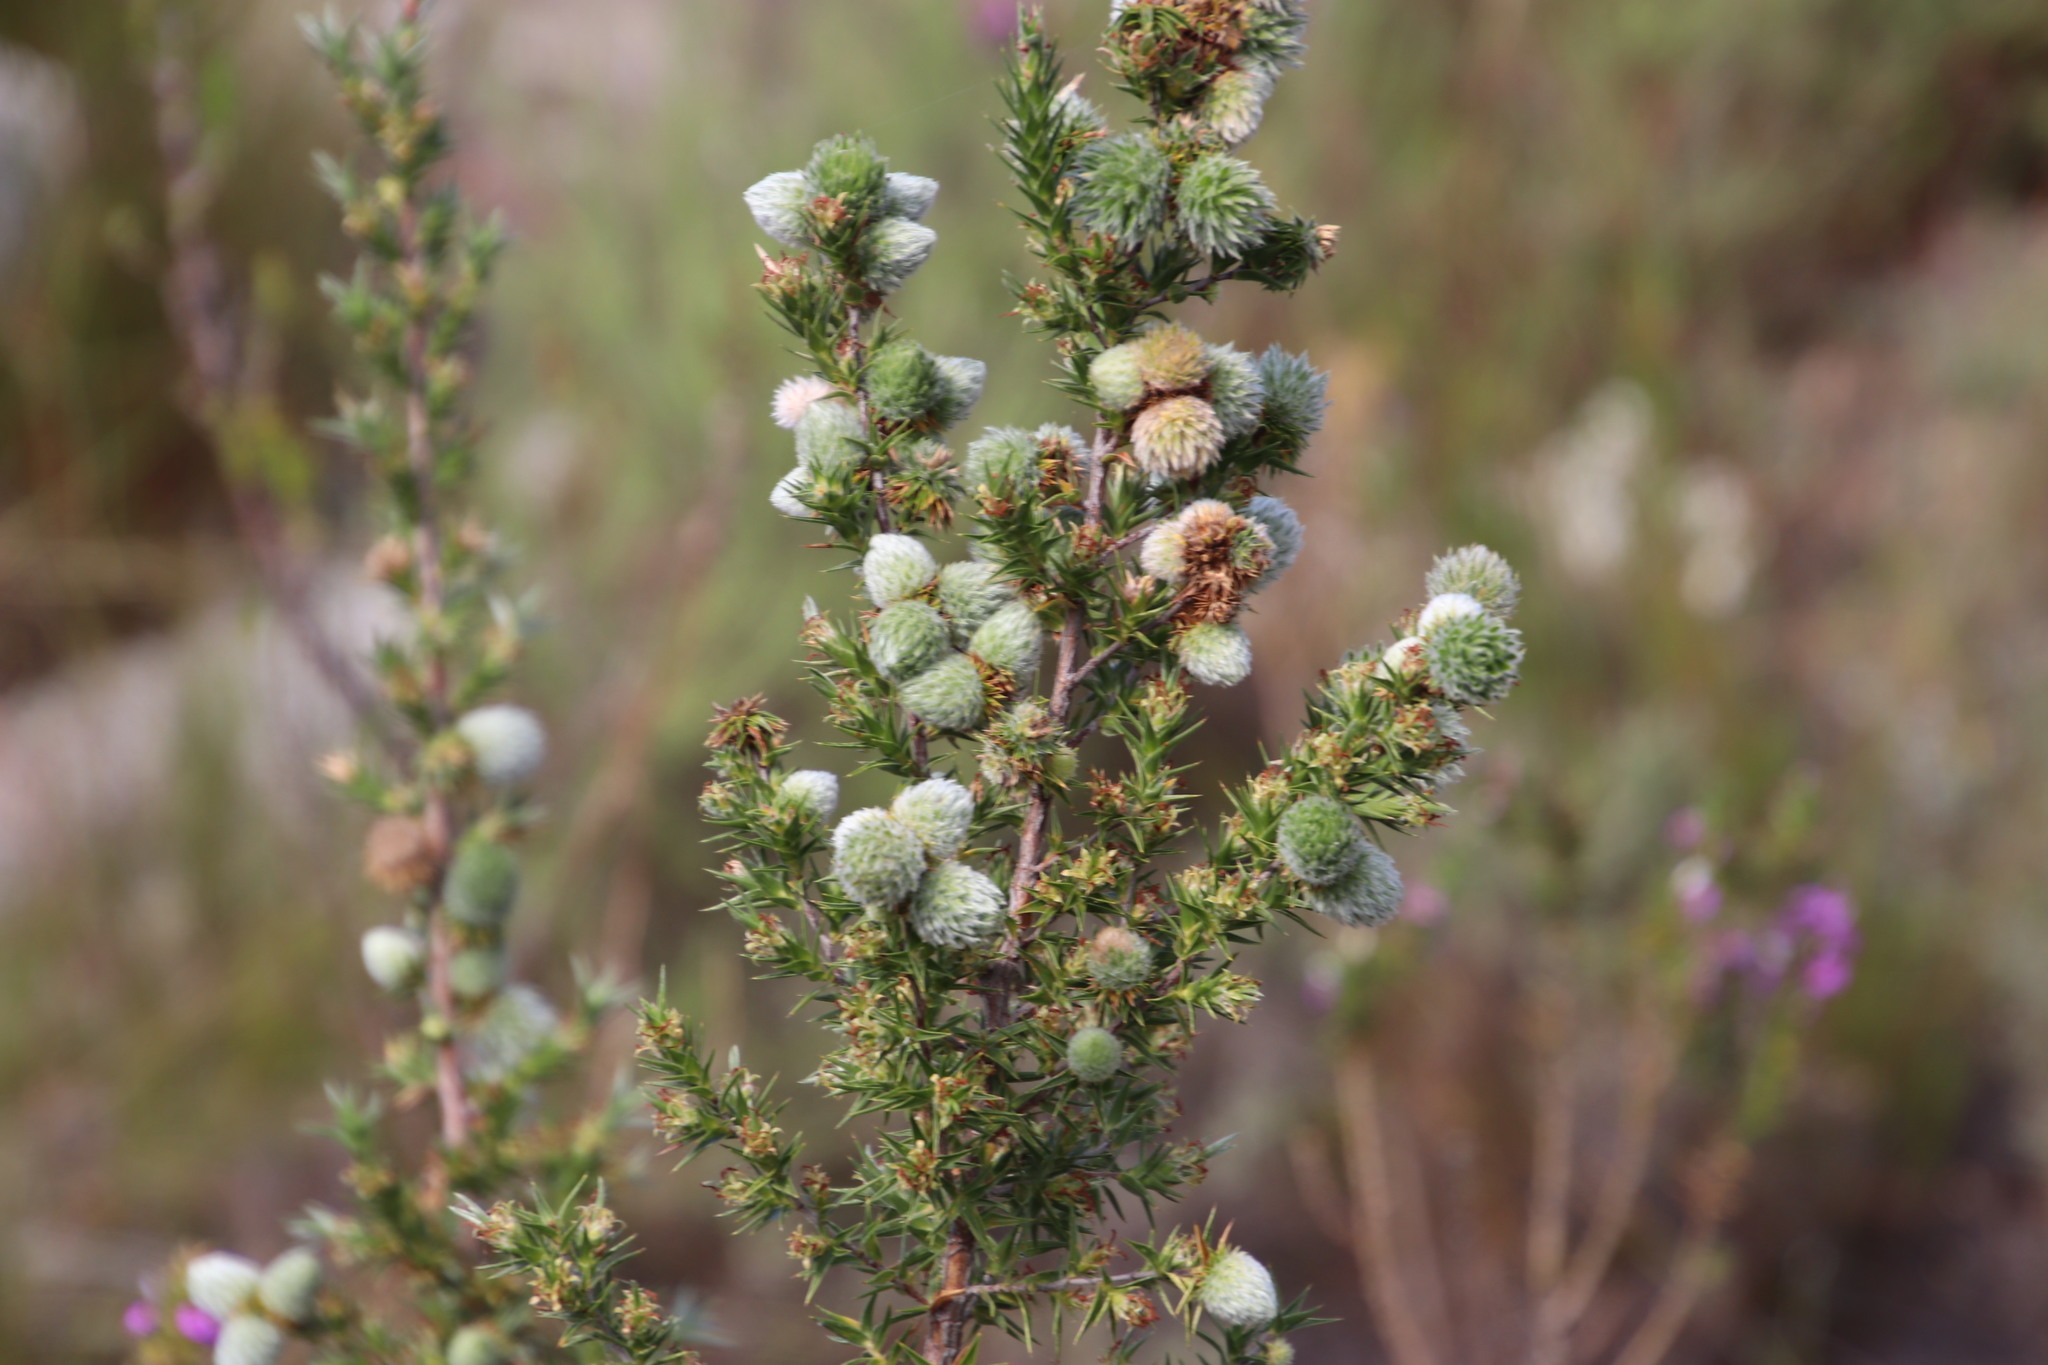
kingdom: Plantae
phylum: Tracheophyta
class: Magnoliopsida
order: Rosales
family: Rosaceae
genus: Cliffortia
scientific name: Cliffortia ruscifolia
